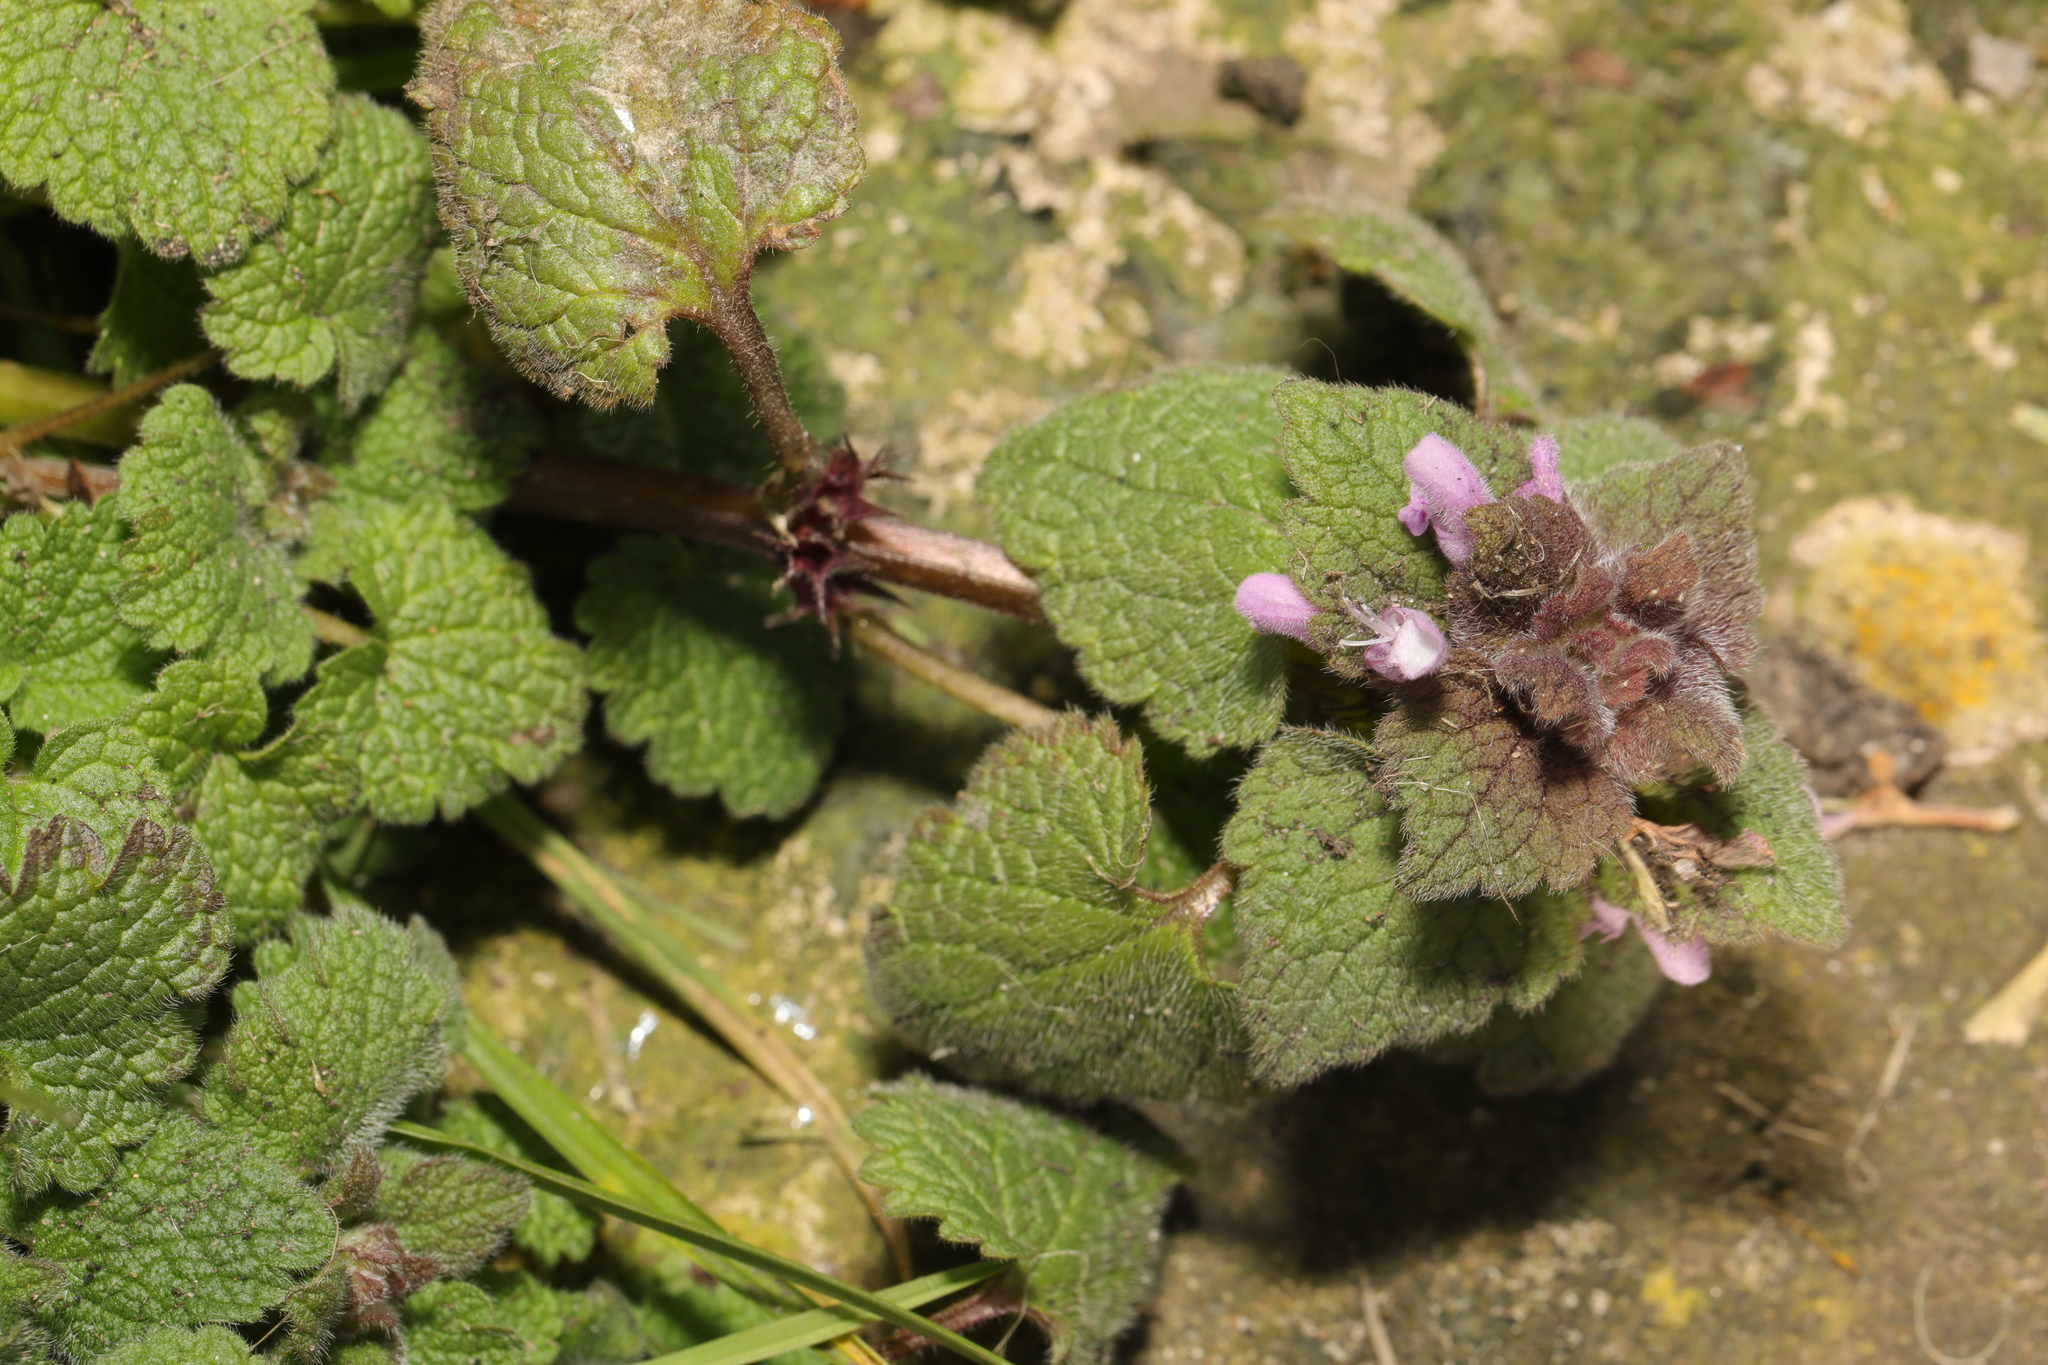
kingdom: Plantae
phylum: Tracheophyta
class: Magnoliopsida
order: Lamiales
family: Lamiaceae
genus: Lamium
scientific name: Lamium purpureum
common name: Red dead-nettle
